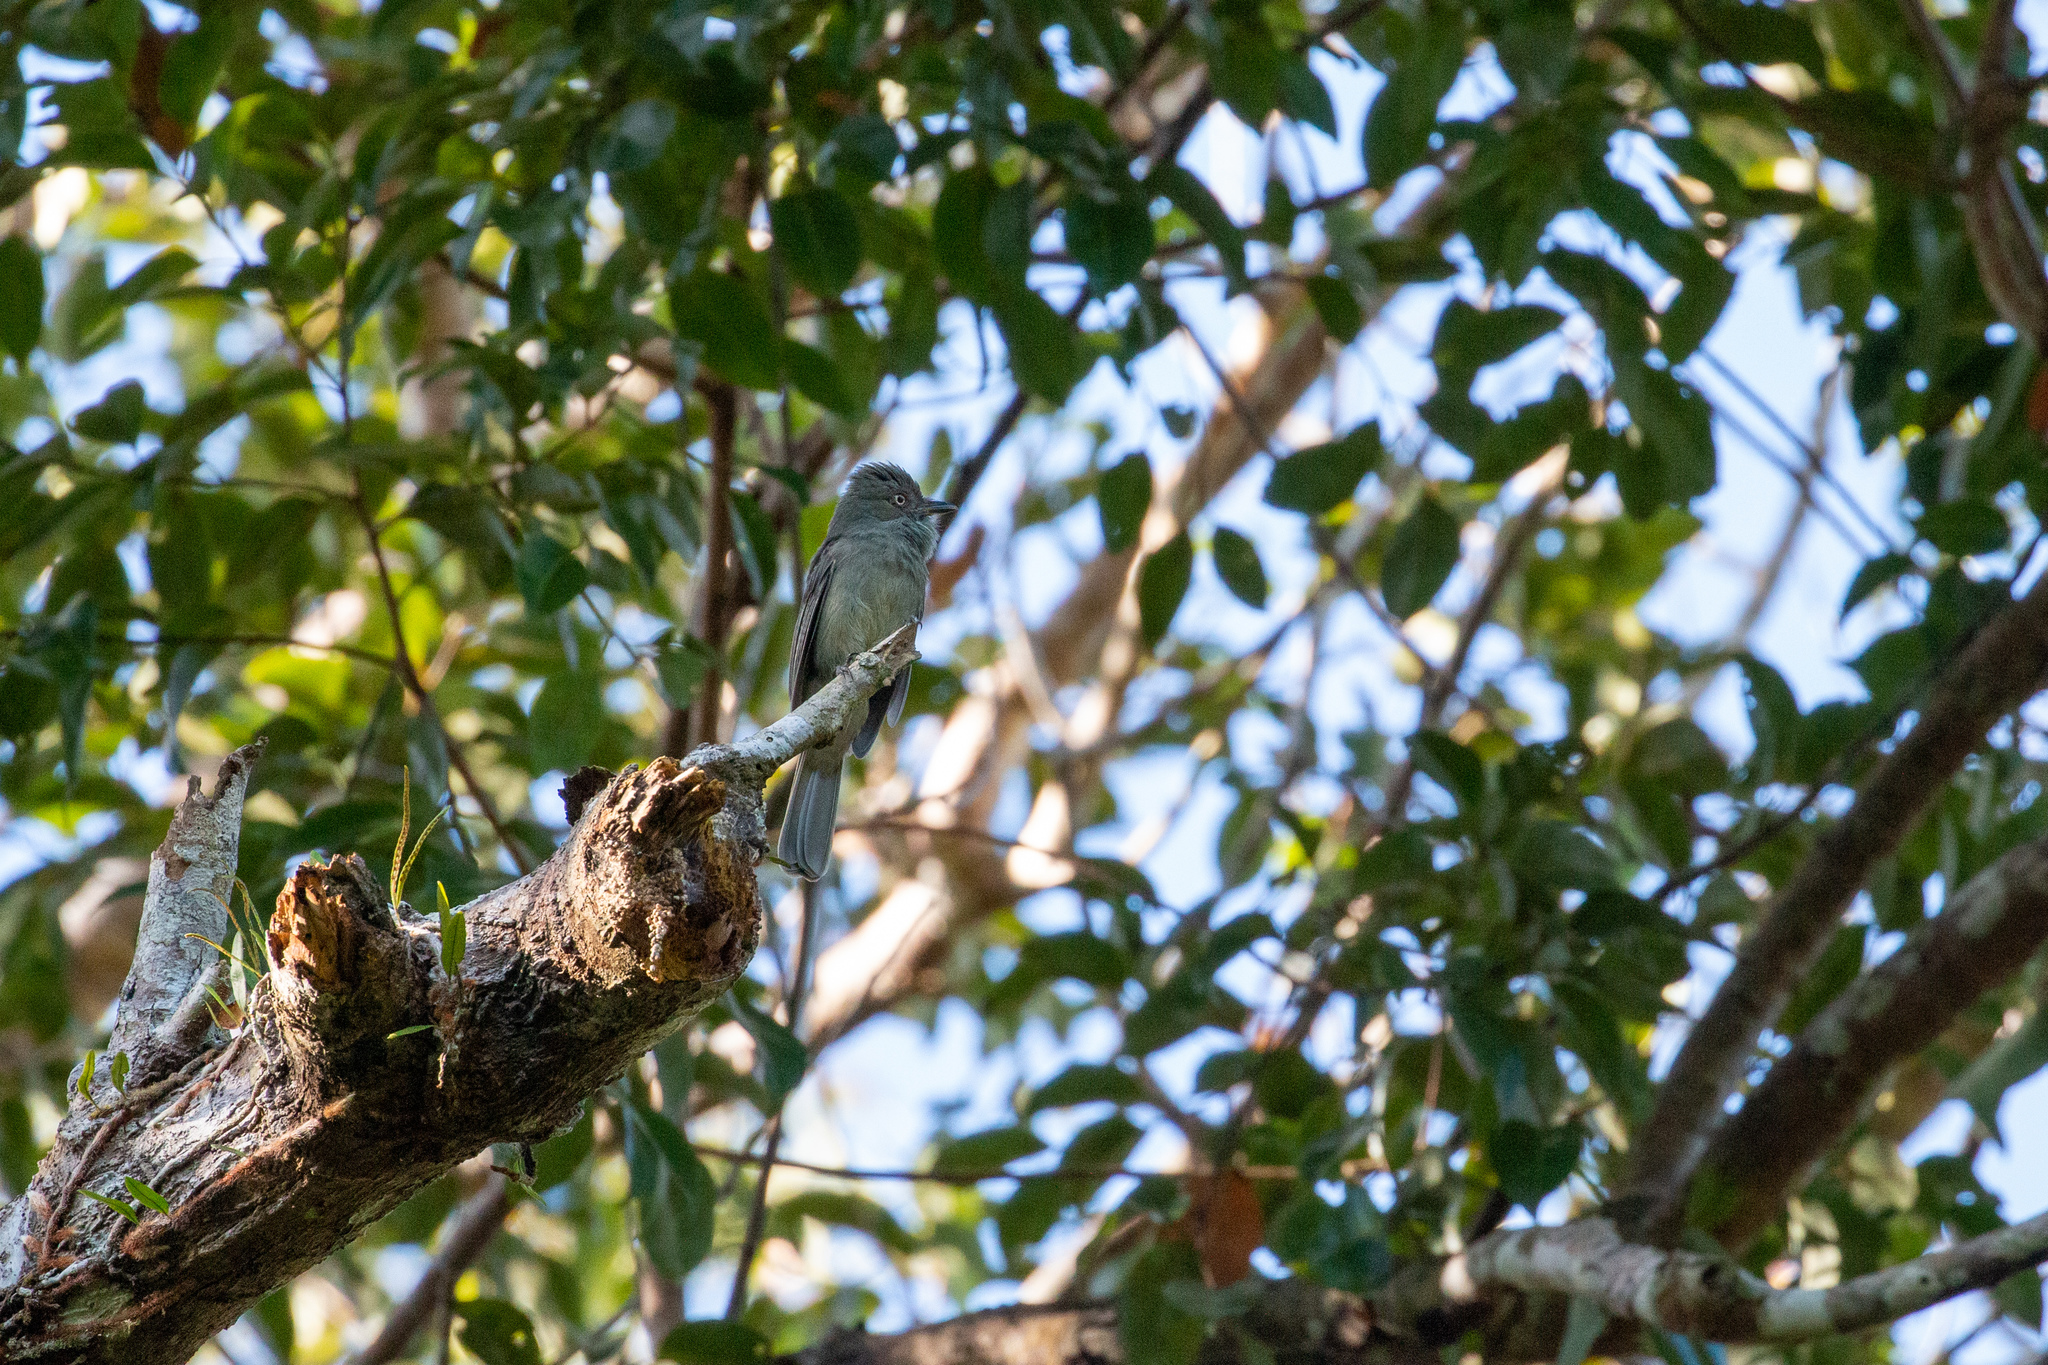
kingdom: Animalia
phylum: Chordata
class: Aves
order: Passeriformes
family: Tyrannidae
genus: Rhytipterna
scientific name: Rhytipterna simplex
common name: Greyish mourner
